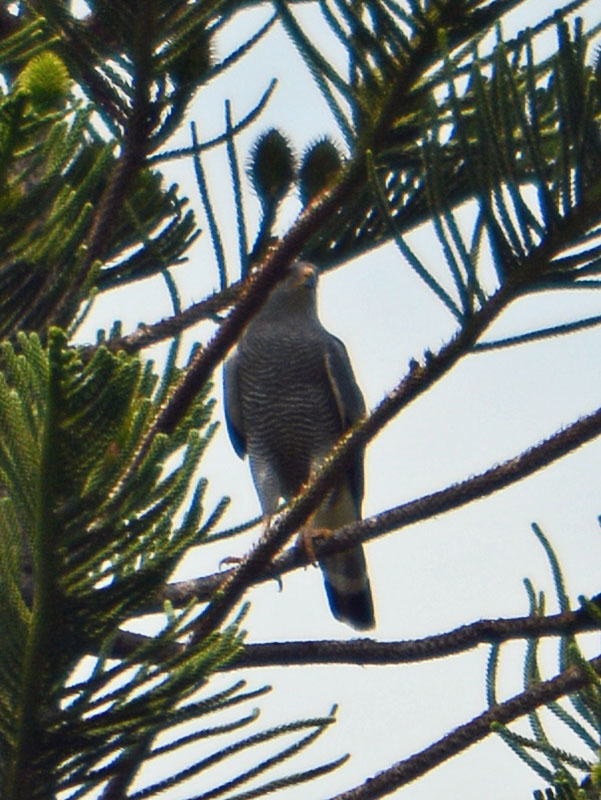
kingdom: Animalia
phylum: Chordata
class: Aves
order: Accipitriformes
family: Accipitridae
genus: Buteo
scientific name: Buteo nitidus
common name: Grey-lined hawk
